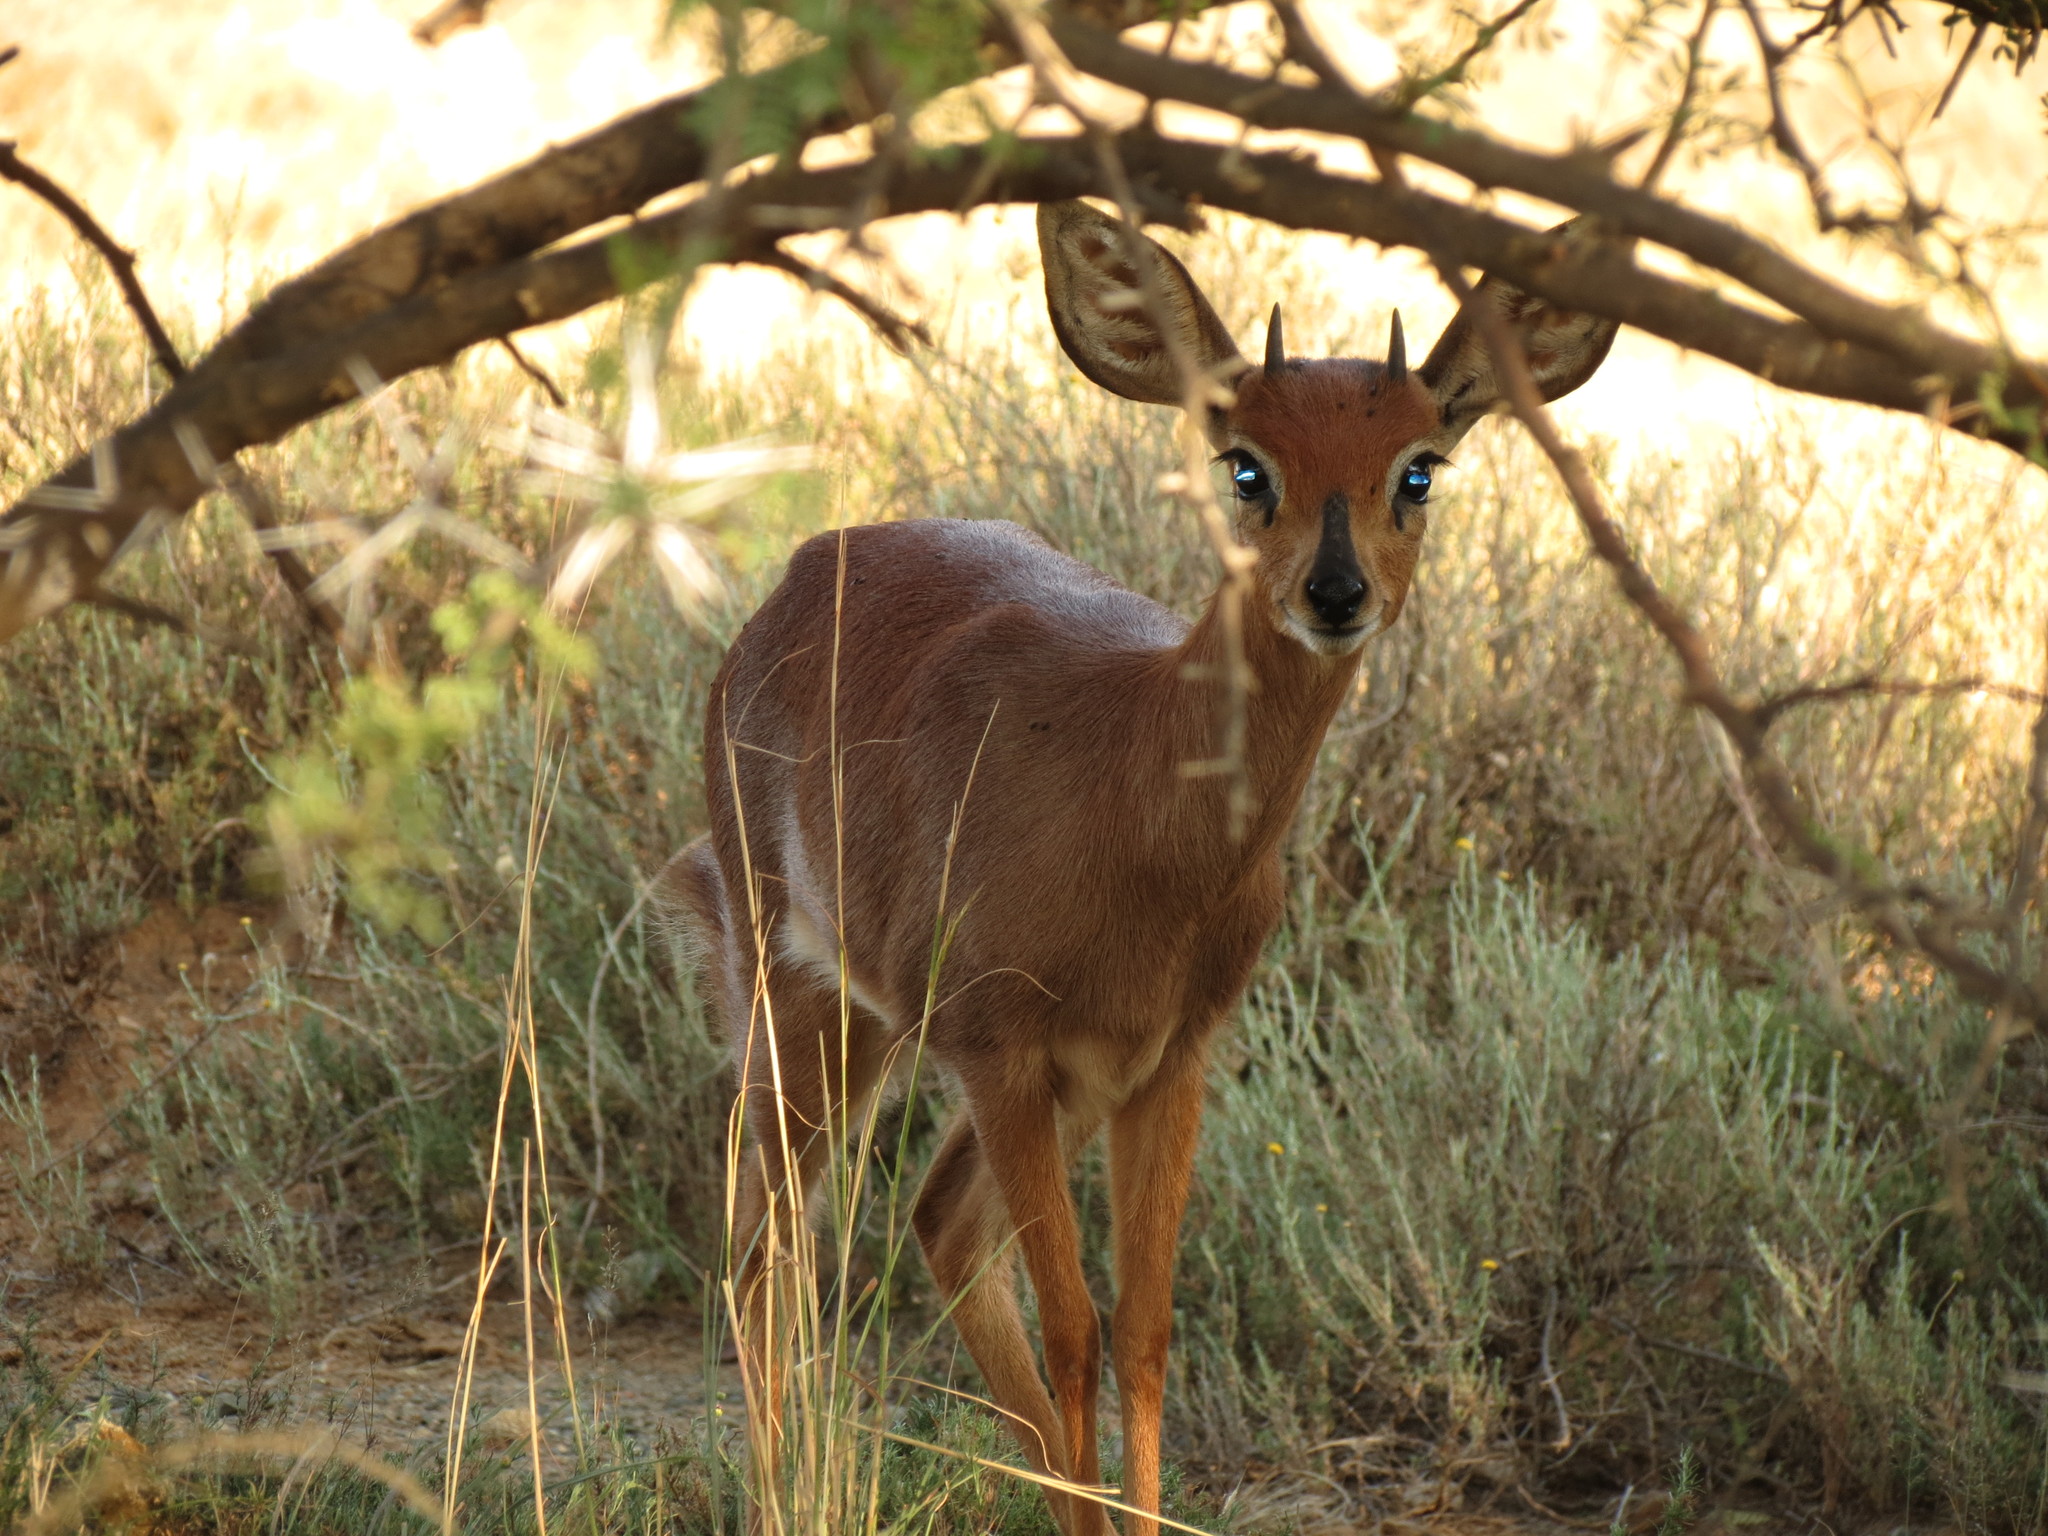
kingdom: Animalia
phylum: Chordata
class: Mammalia
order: Artiodactyla
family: Bovidae
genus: Raphicerus
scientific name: Raphicerus campestris
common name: Steenbok
